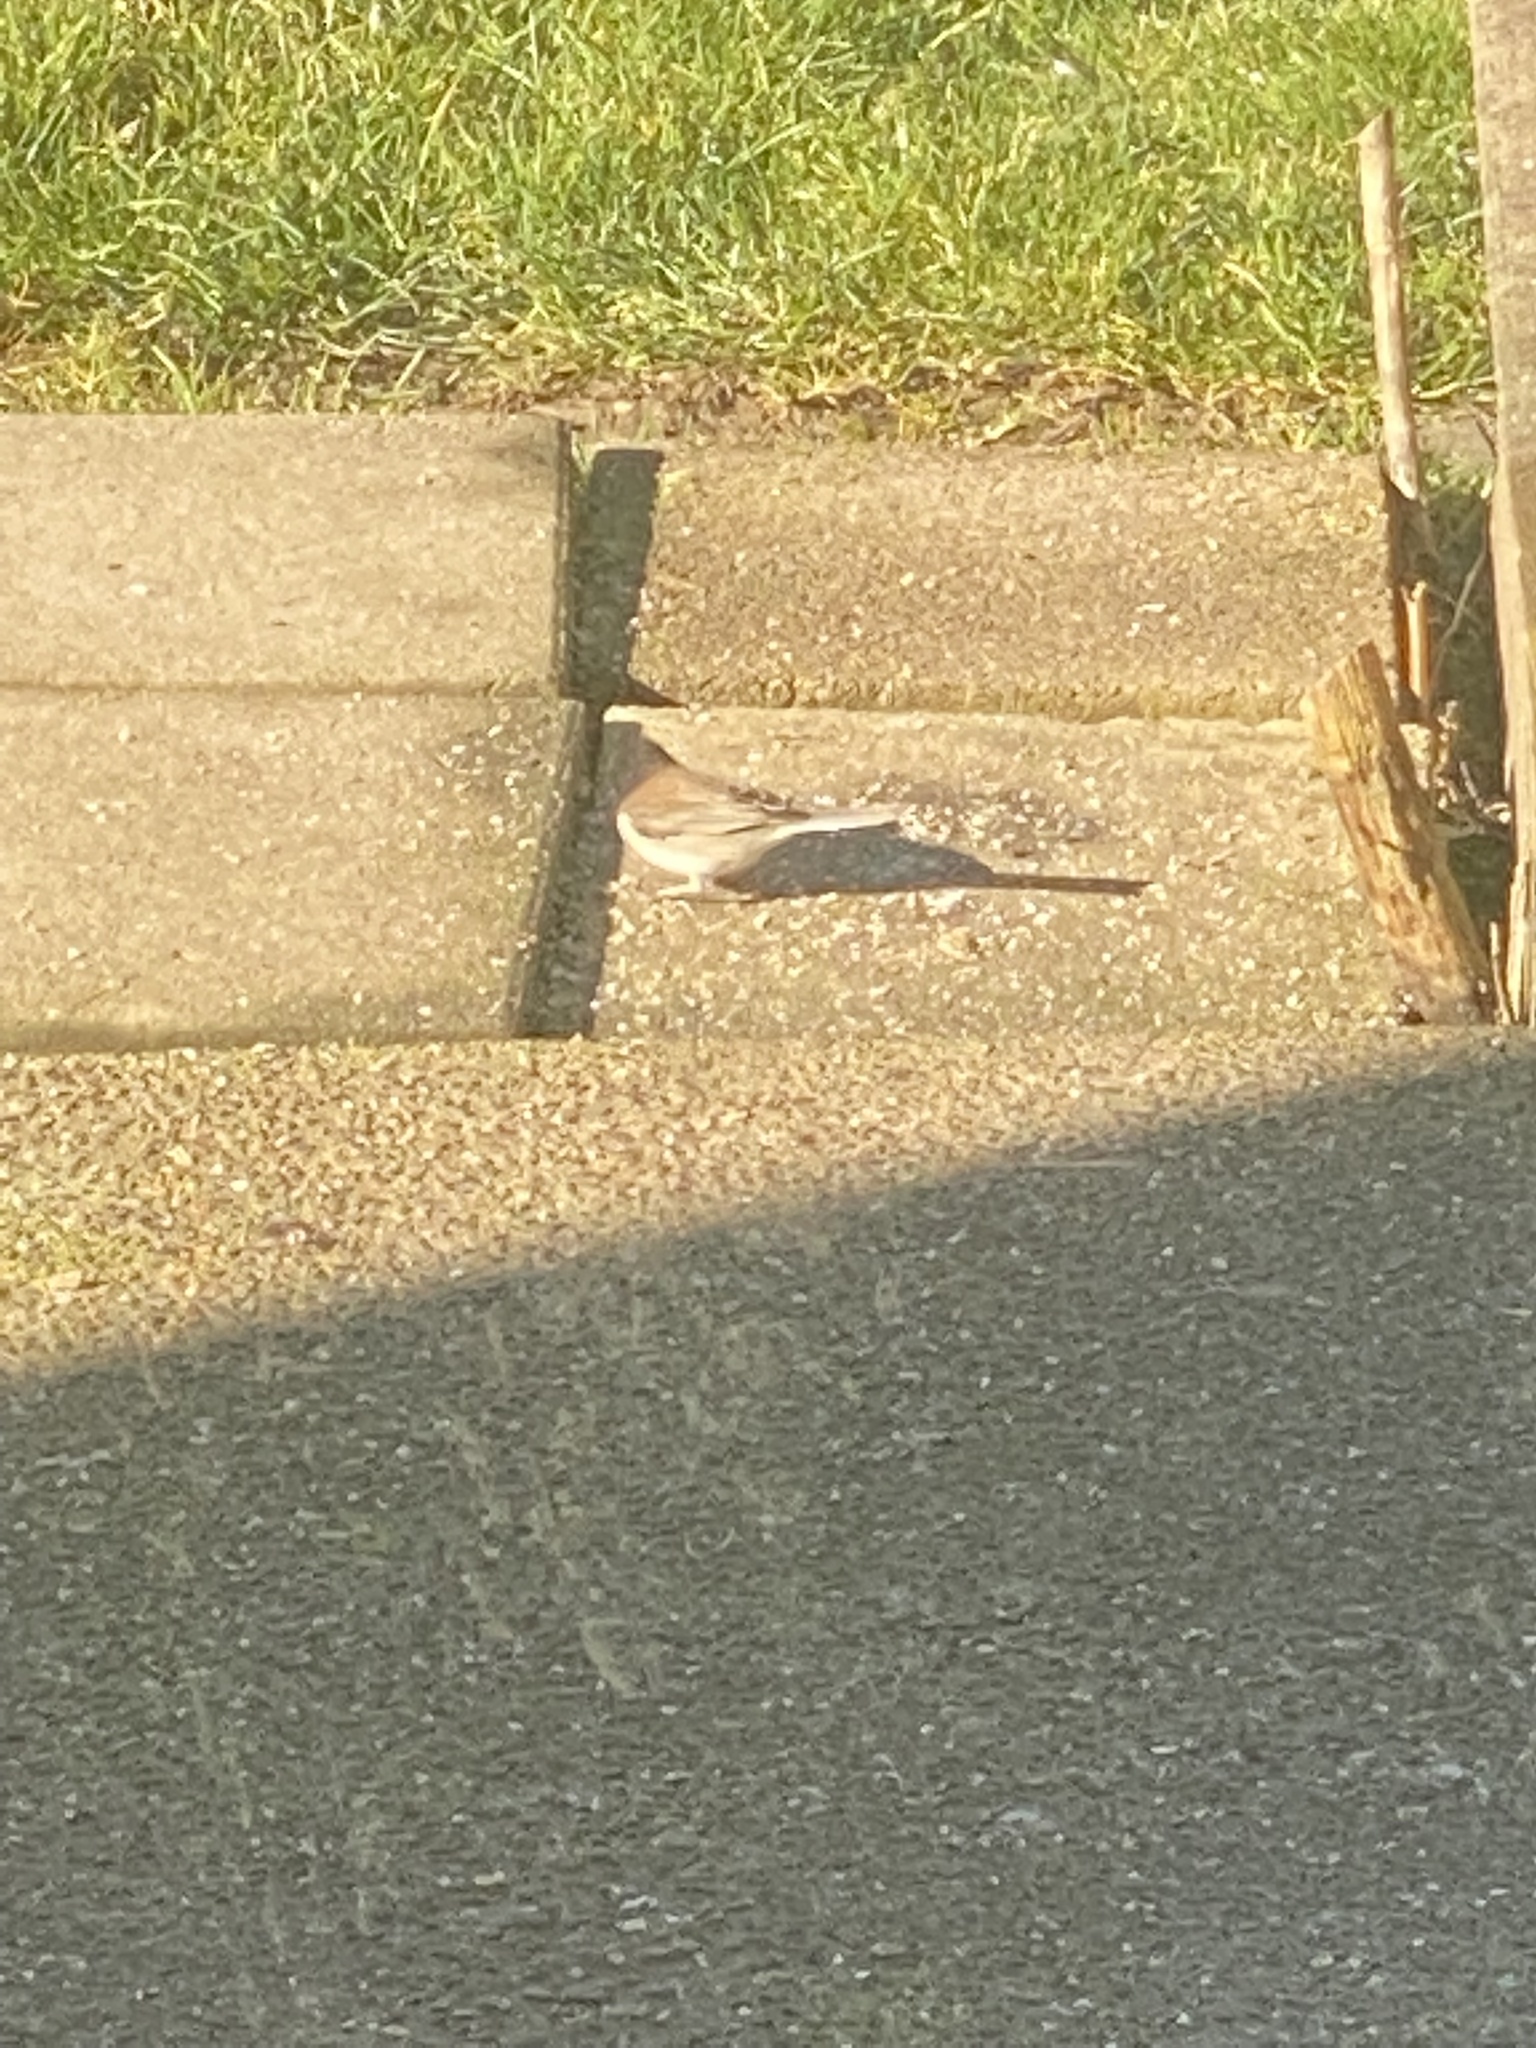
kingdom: Animalia
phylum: Chordata
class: Aves
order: Passeriformes
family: Passerellidae
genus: Junco
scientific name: Junco hyemalis
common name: Dark-eyed junco
